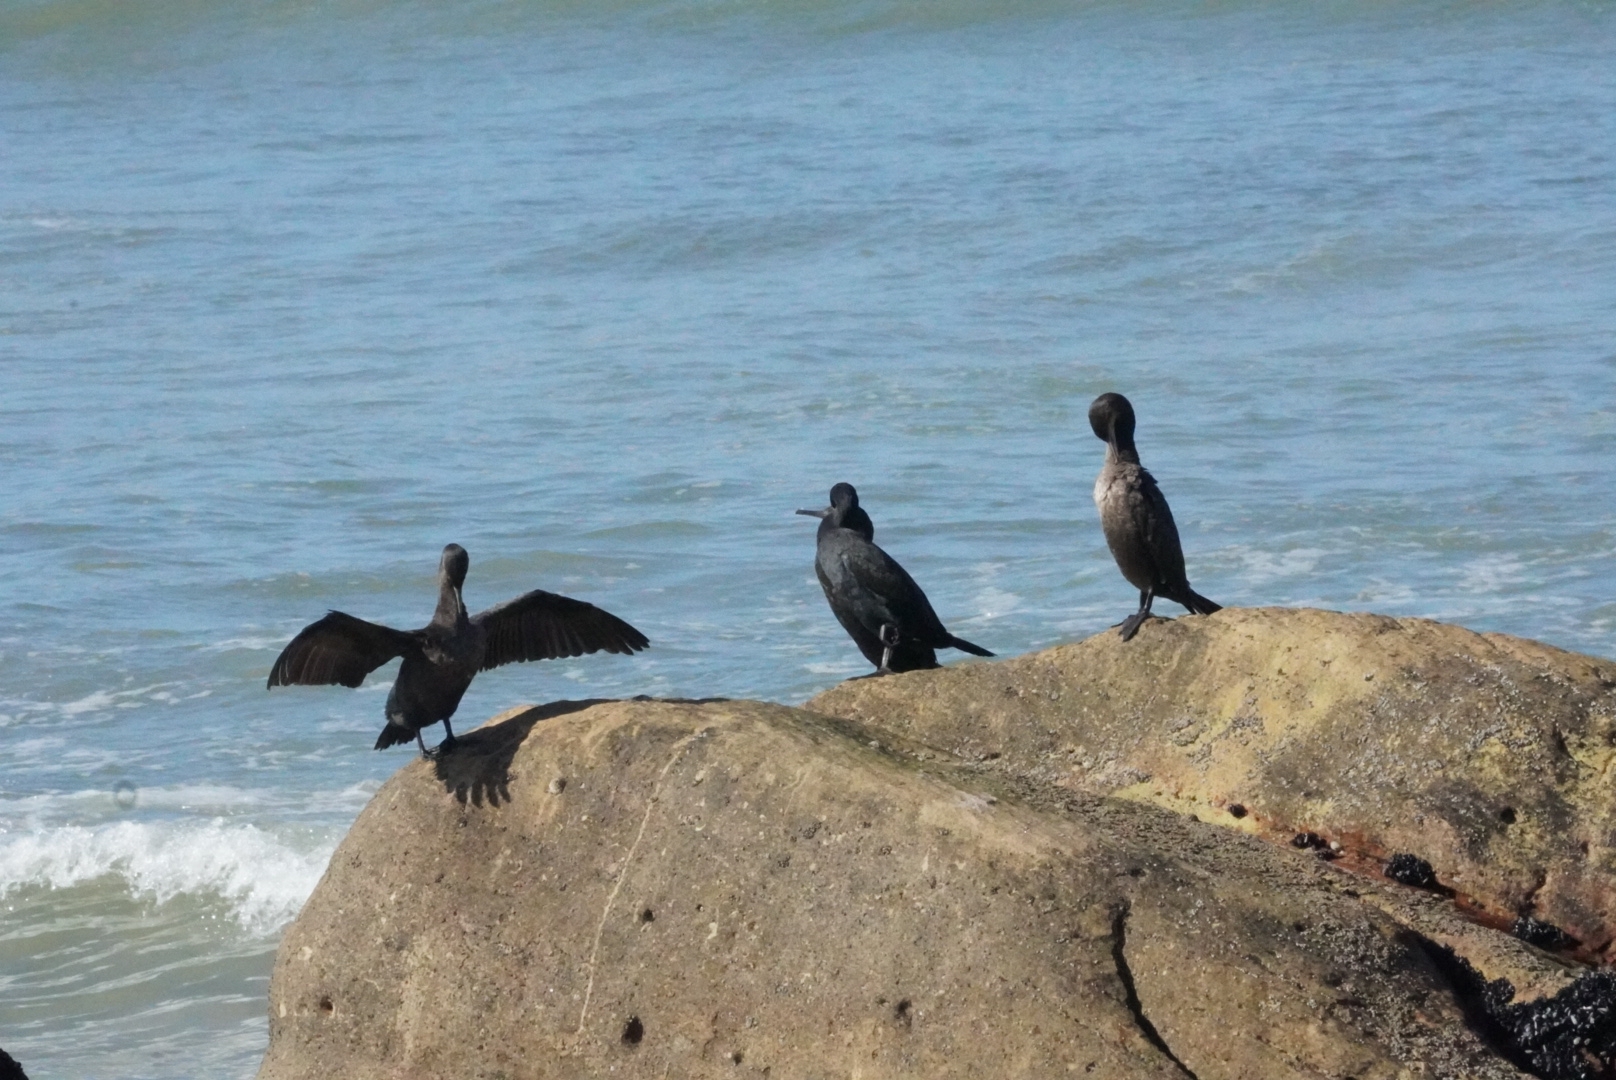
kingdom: Animalia
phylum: Chordata
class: Aves
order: Suliformes
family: Phalacrocoracidae
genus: Phalacrocorax
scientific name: Phalacrocorax capensis
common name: Cape cormorant
